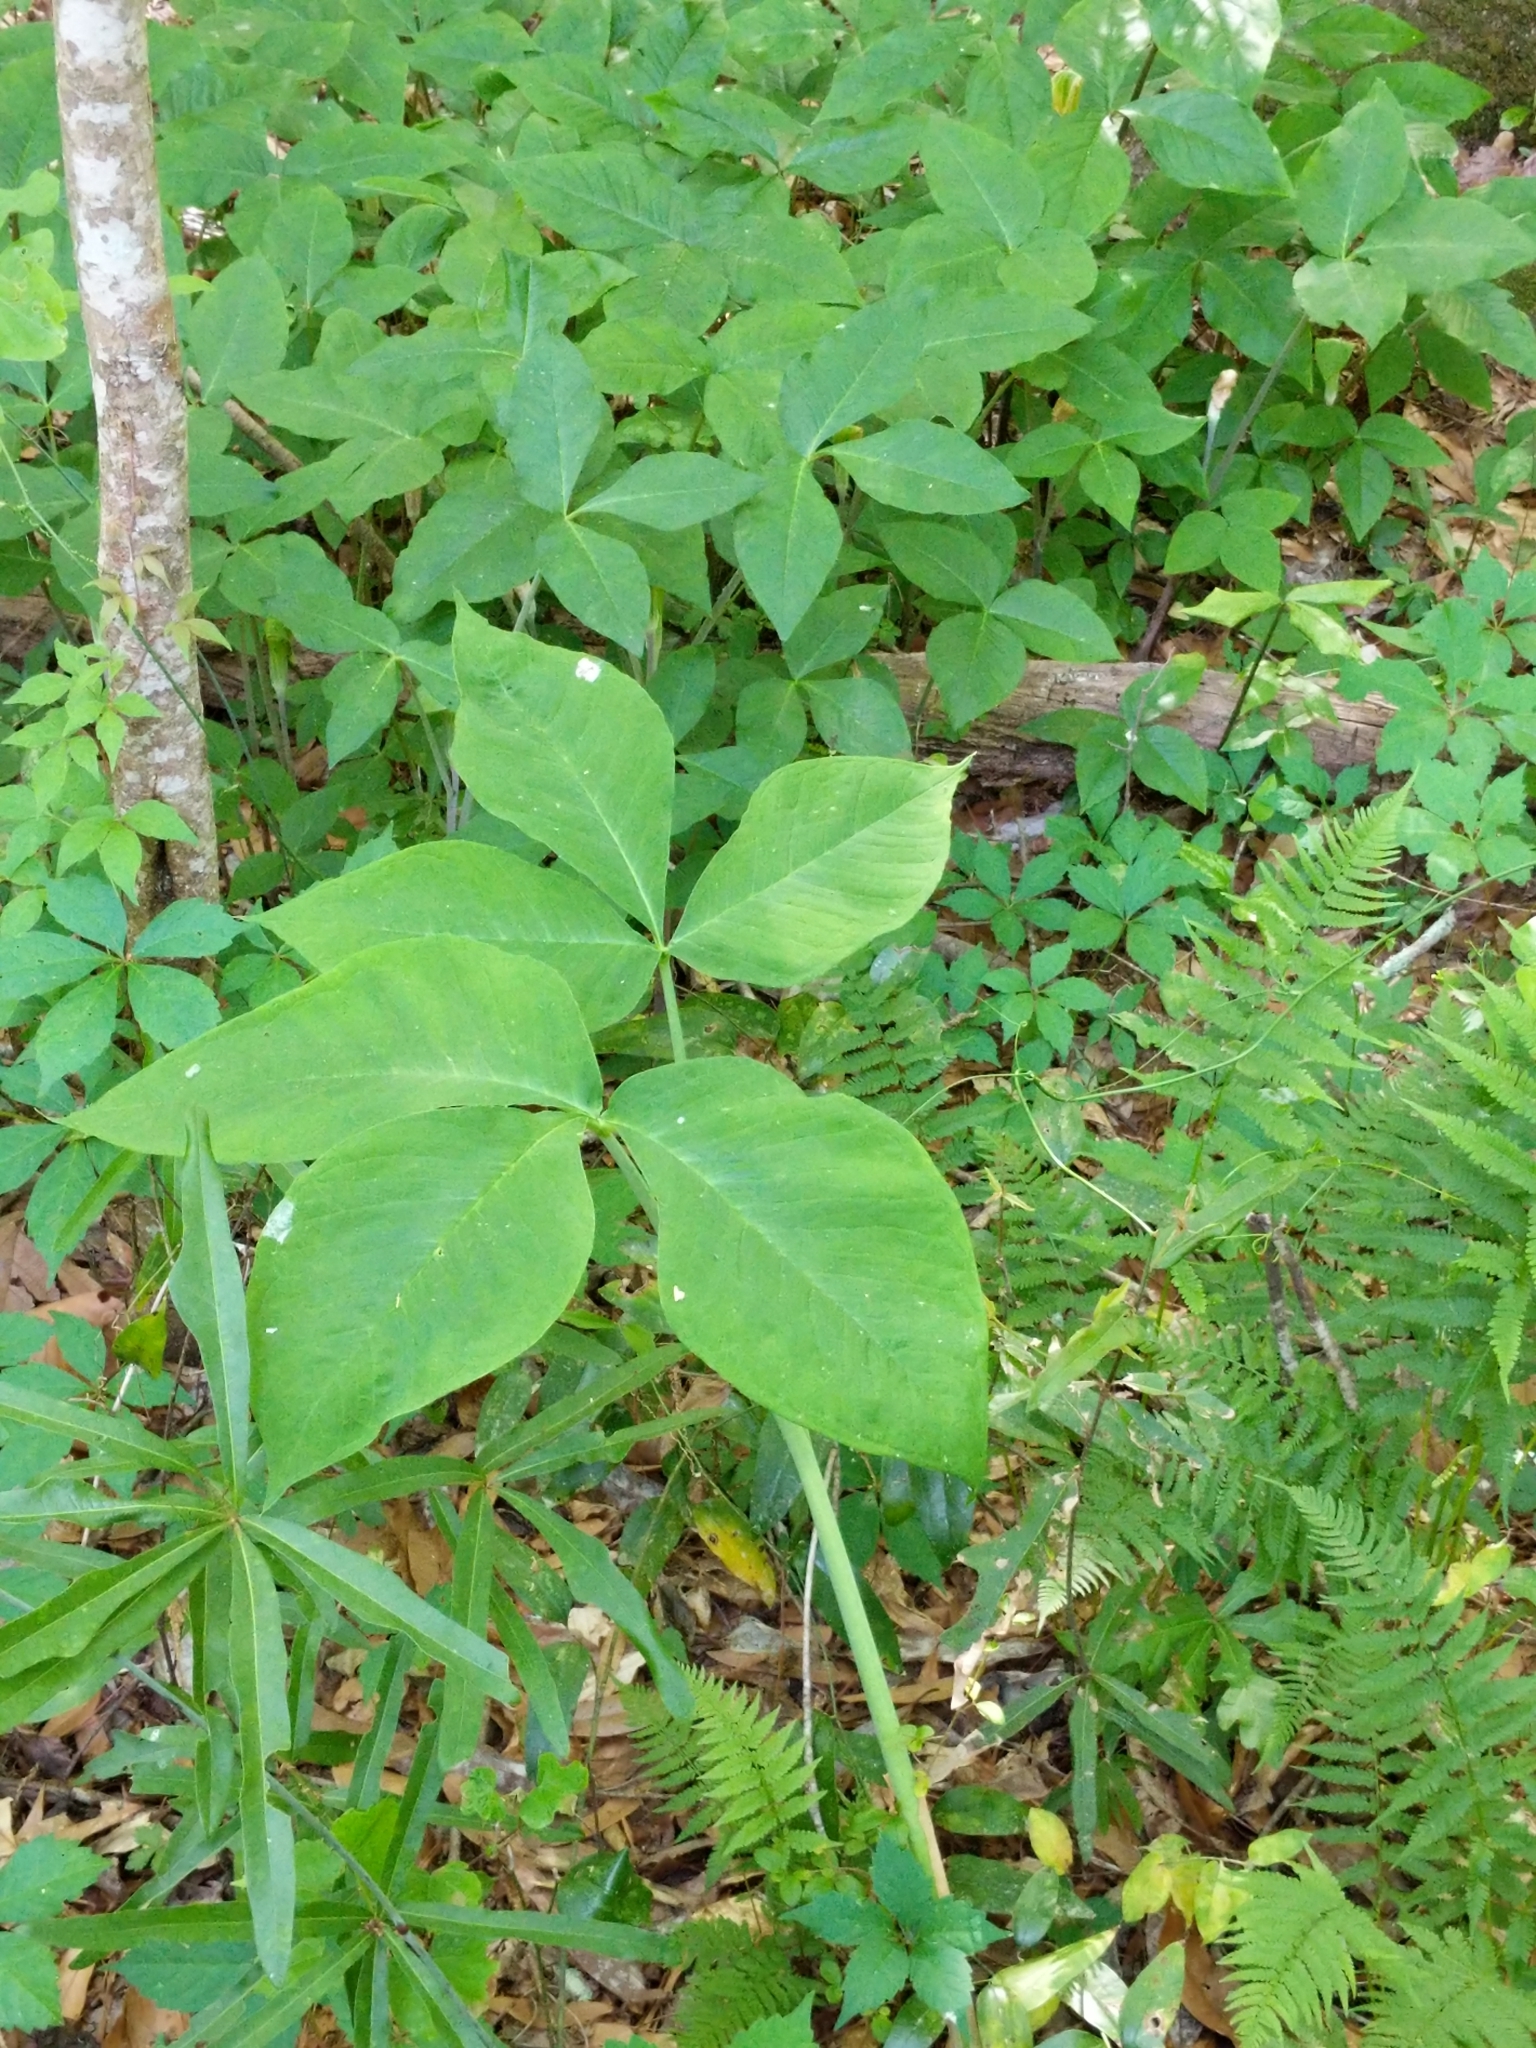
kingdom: Plantae
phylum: Tracheophyta
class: Liliopsida
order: Alismatales
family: Araceae
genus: Arisaema
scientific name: Arisaema triphyllum
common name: Jack-in-the-pulpit
